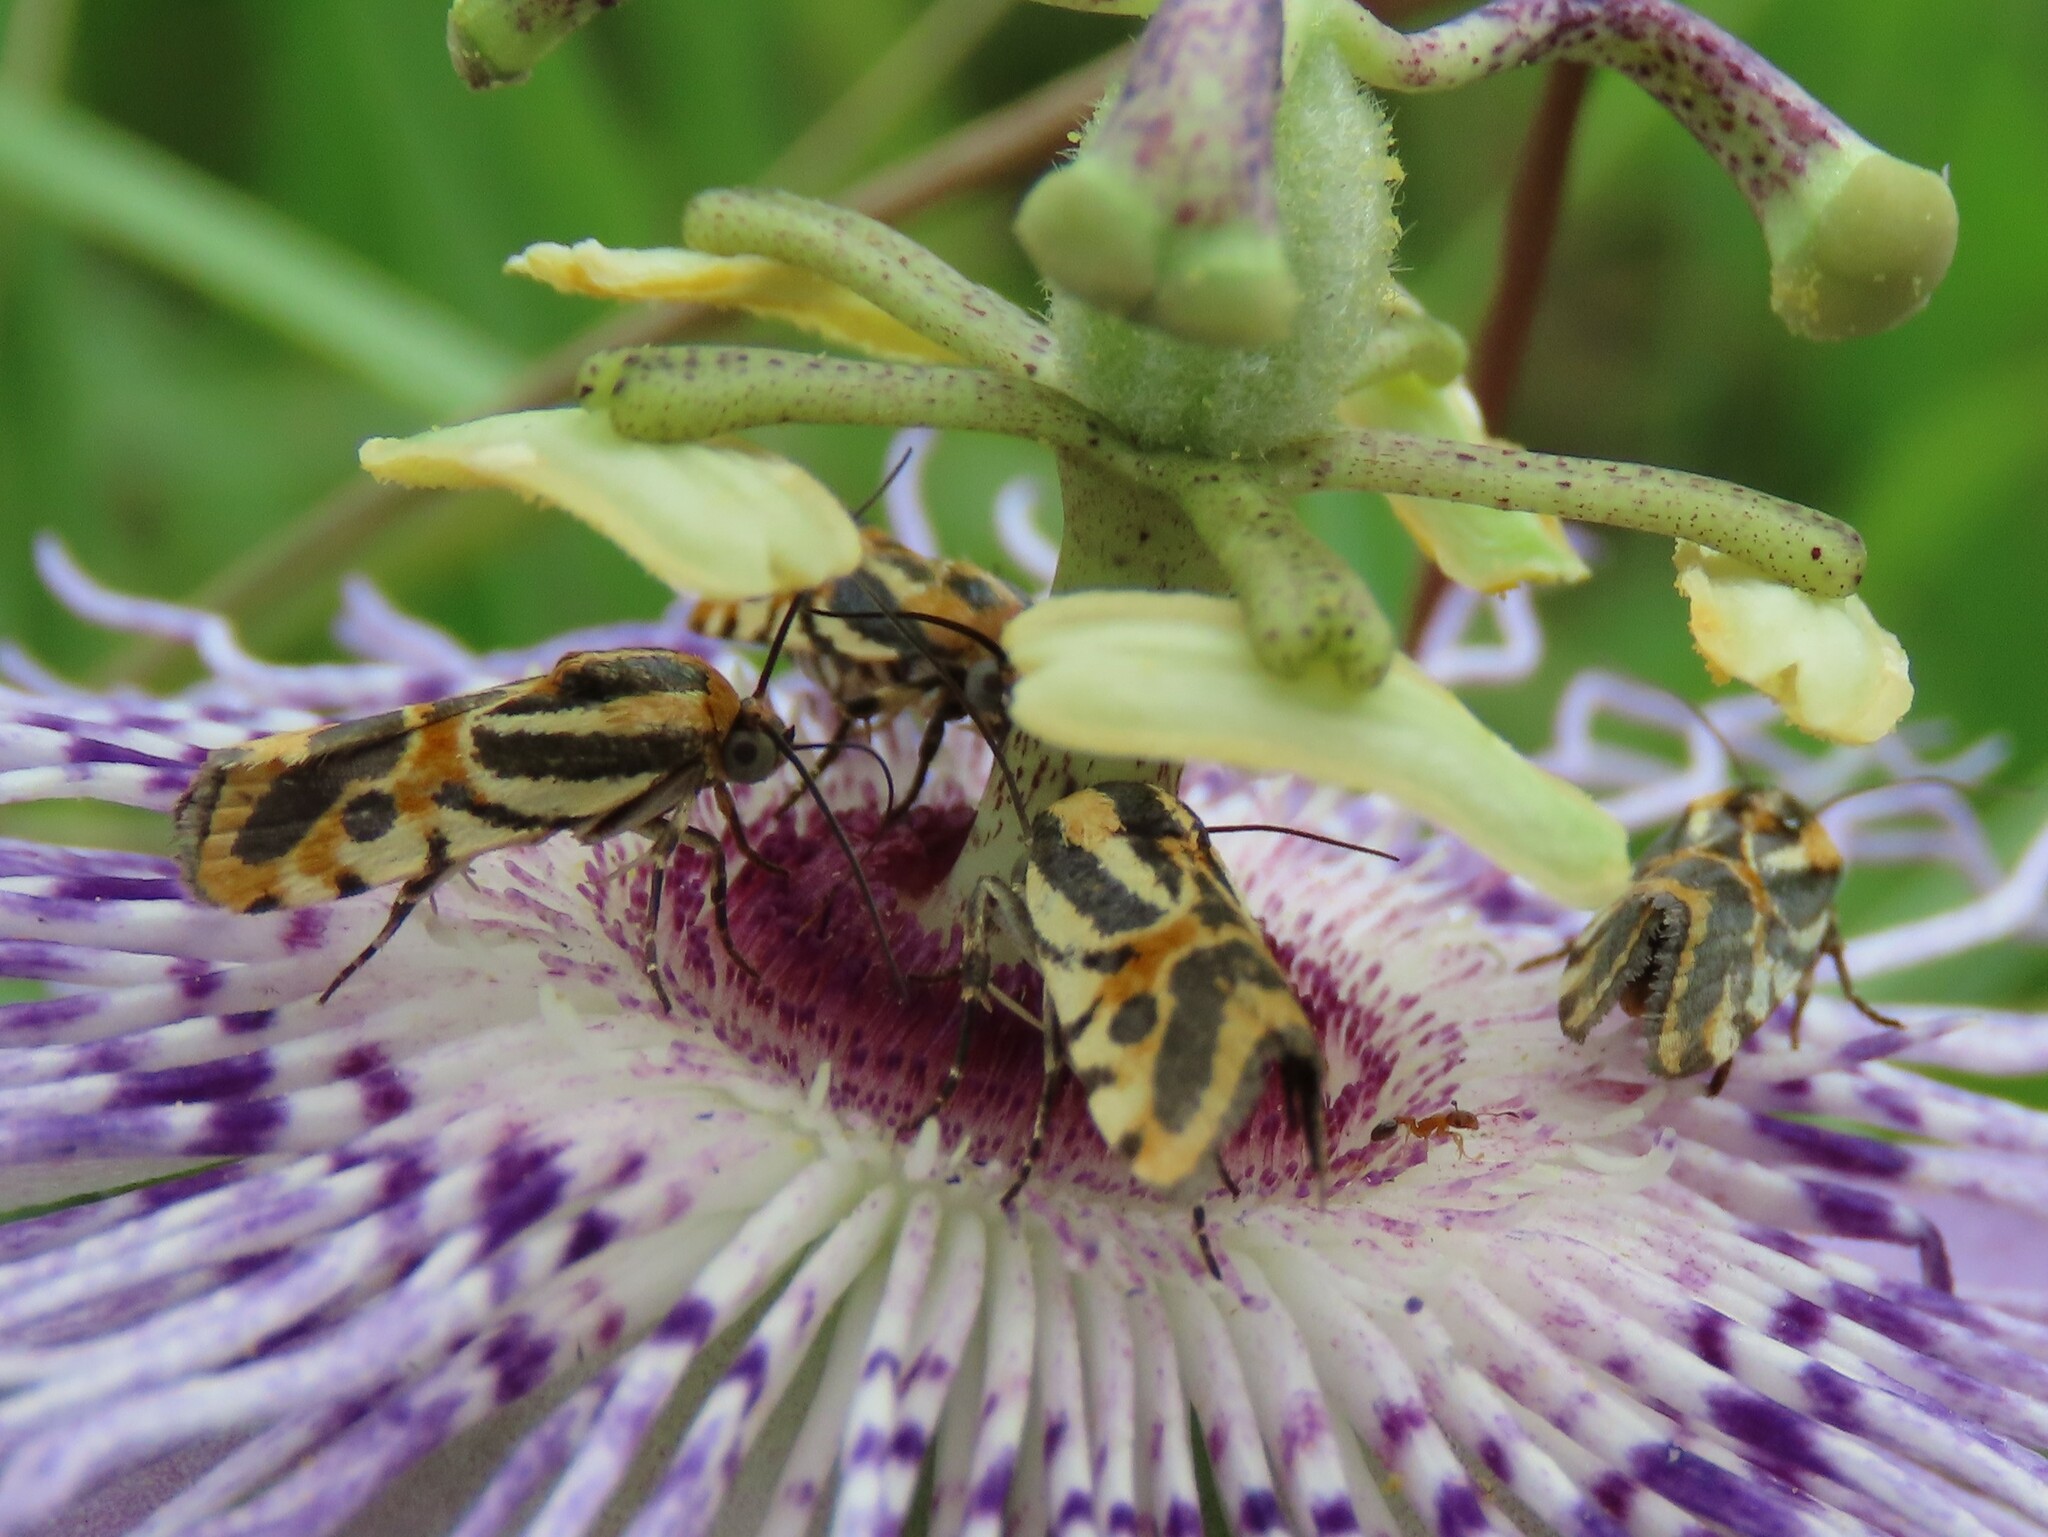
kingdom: Animalia
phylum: Arthropoda
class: Insecta
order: Lepidoptera
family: Noctuidae
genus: Acontia
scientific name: Acontia onagrus
